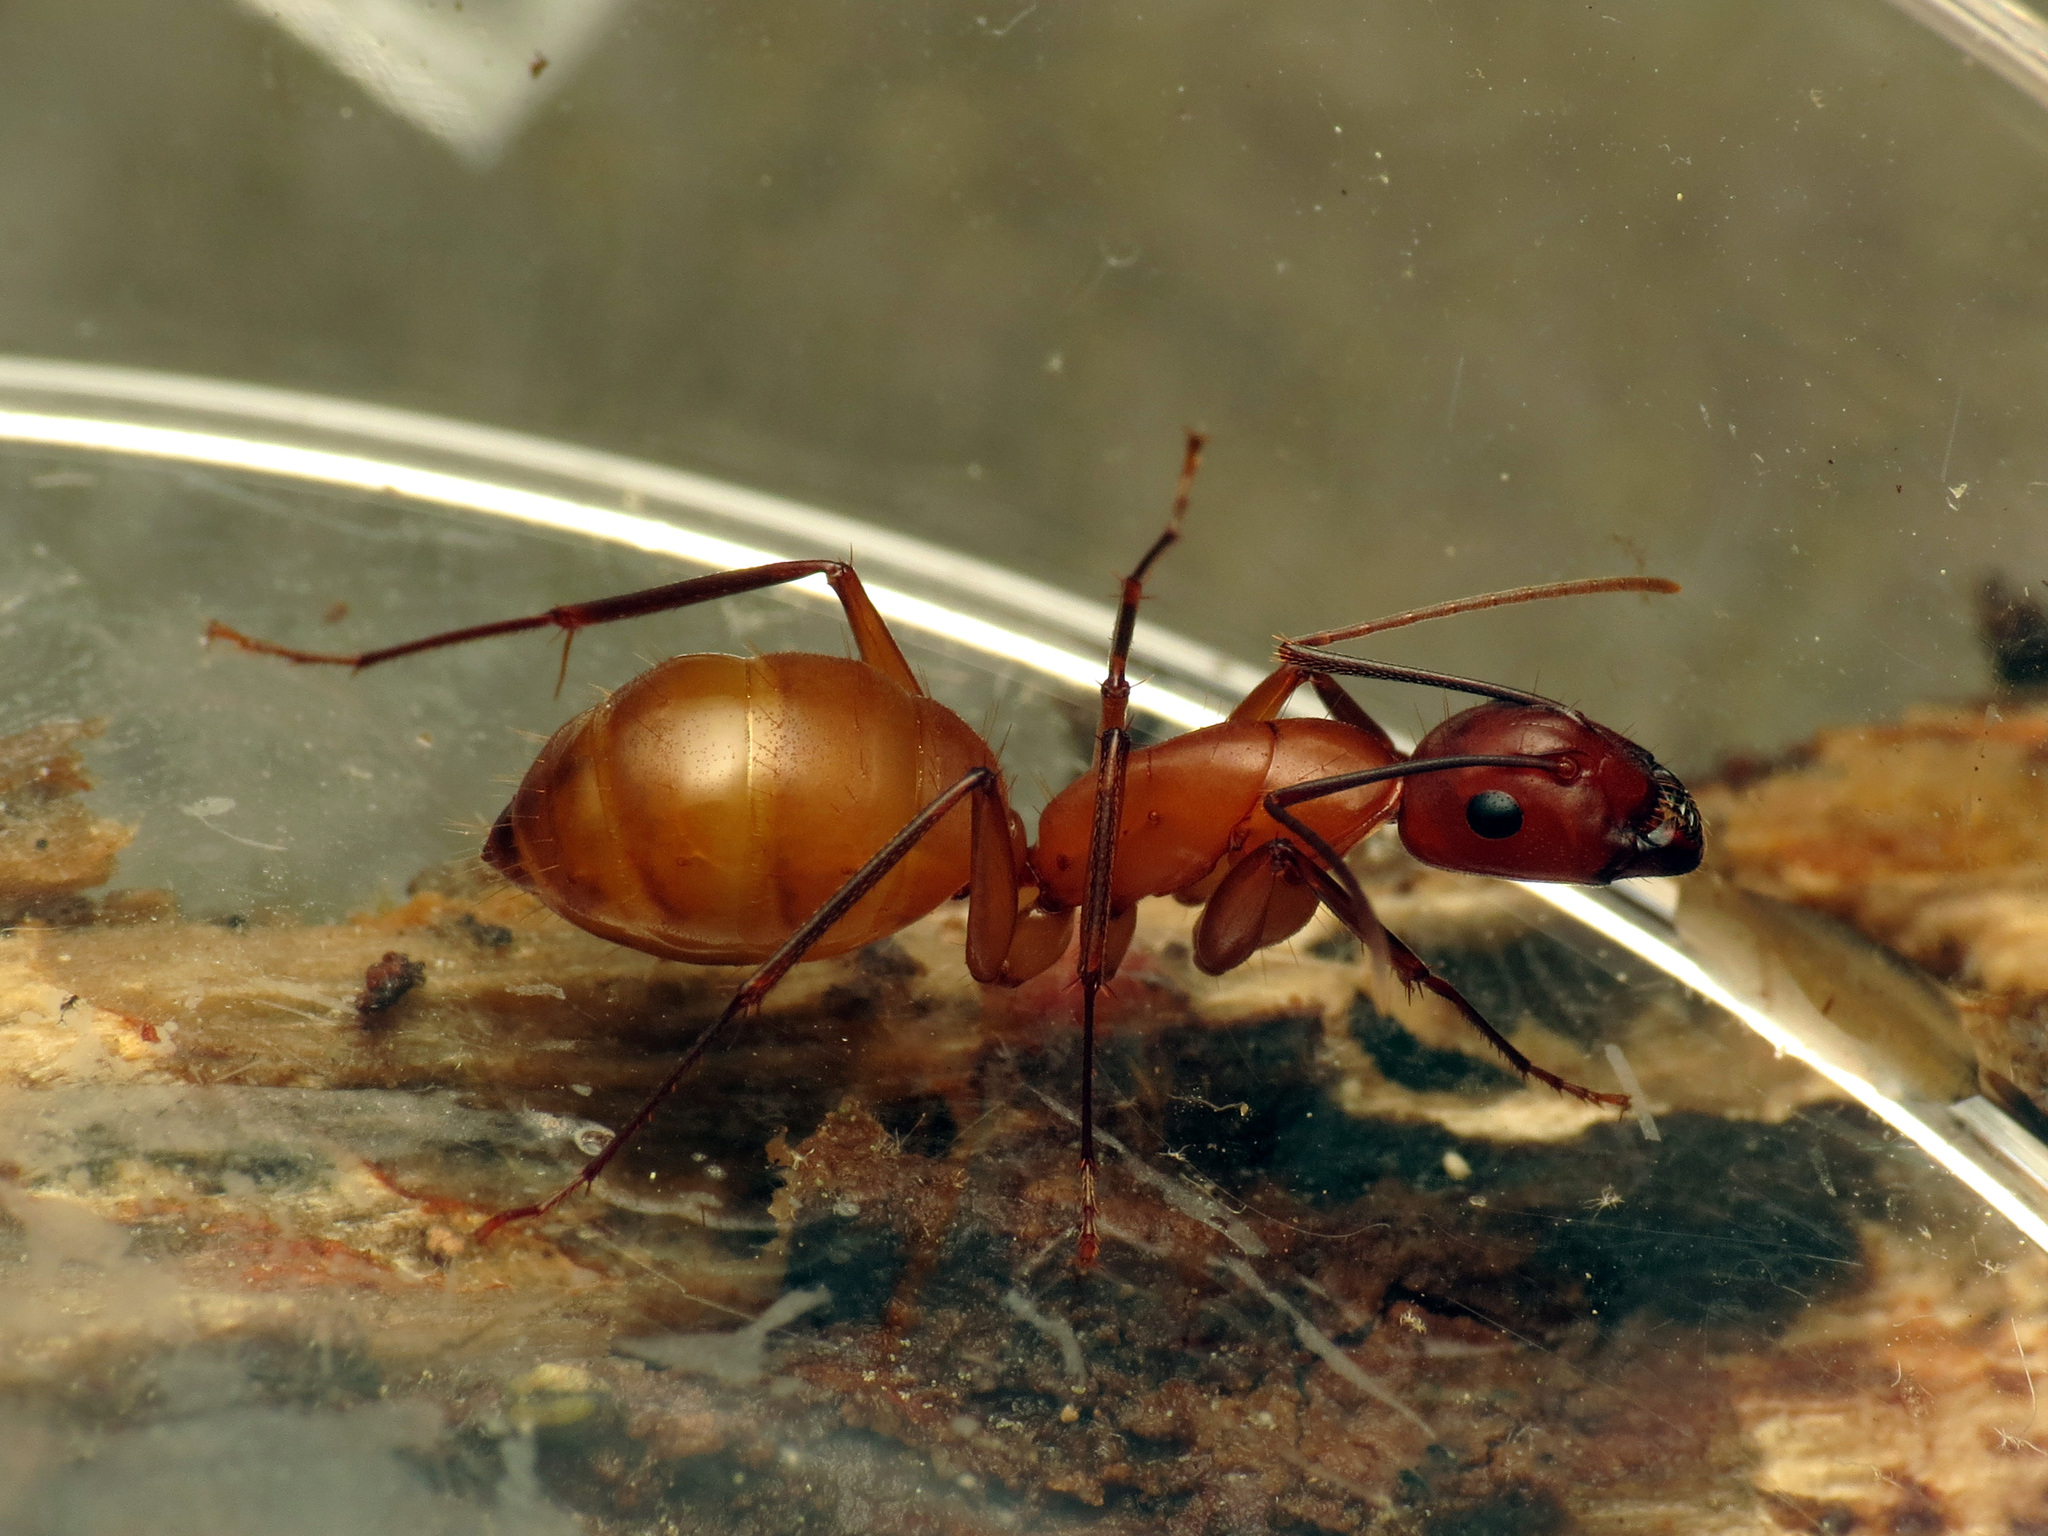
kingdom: Animalia
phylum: Arthropoda
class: Insecta
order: Hymenoptera
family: Formicidae
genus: Camponotus
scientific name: Camponotus castaneus
